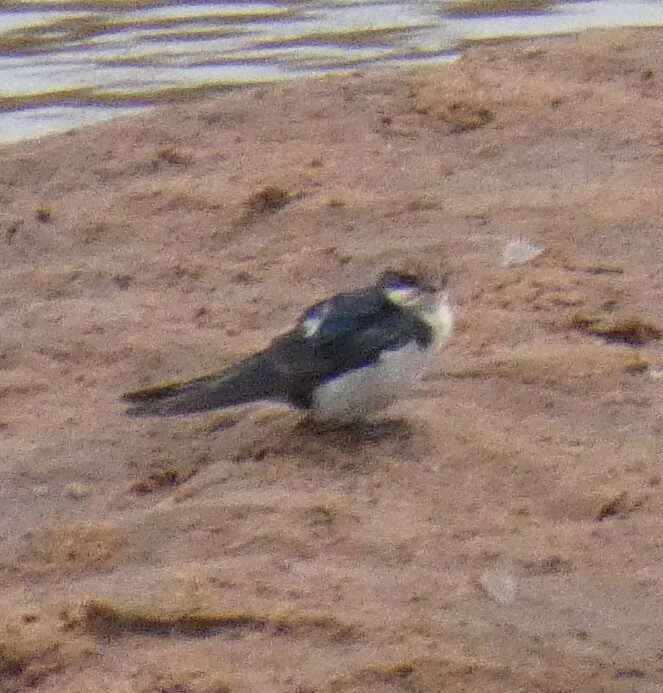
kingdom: Animalia
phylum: Chordata
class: Aves
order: Passeriformes
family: Hirundinidae
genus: Hirundo
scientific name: Hirundo smithii
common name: Wire-tailed swallow
